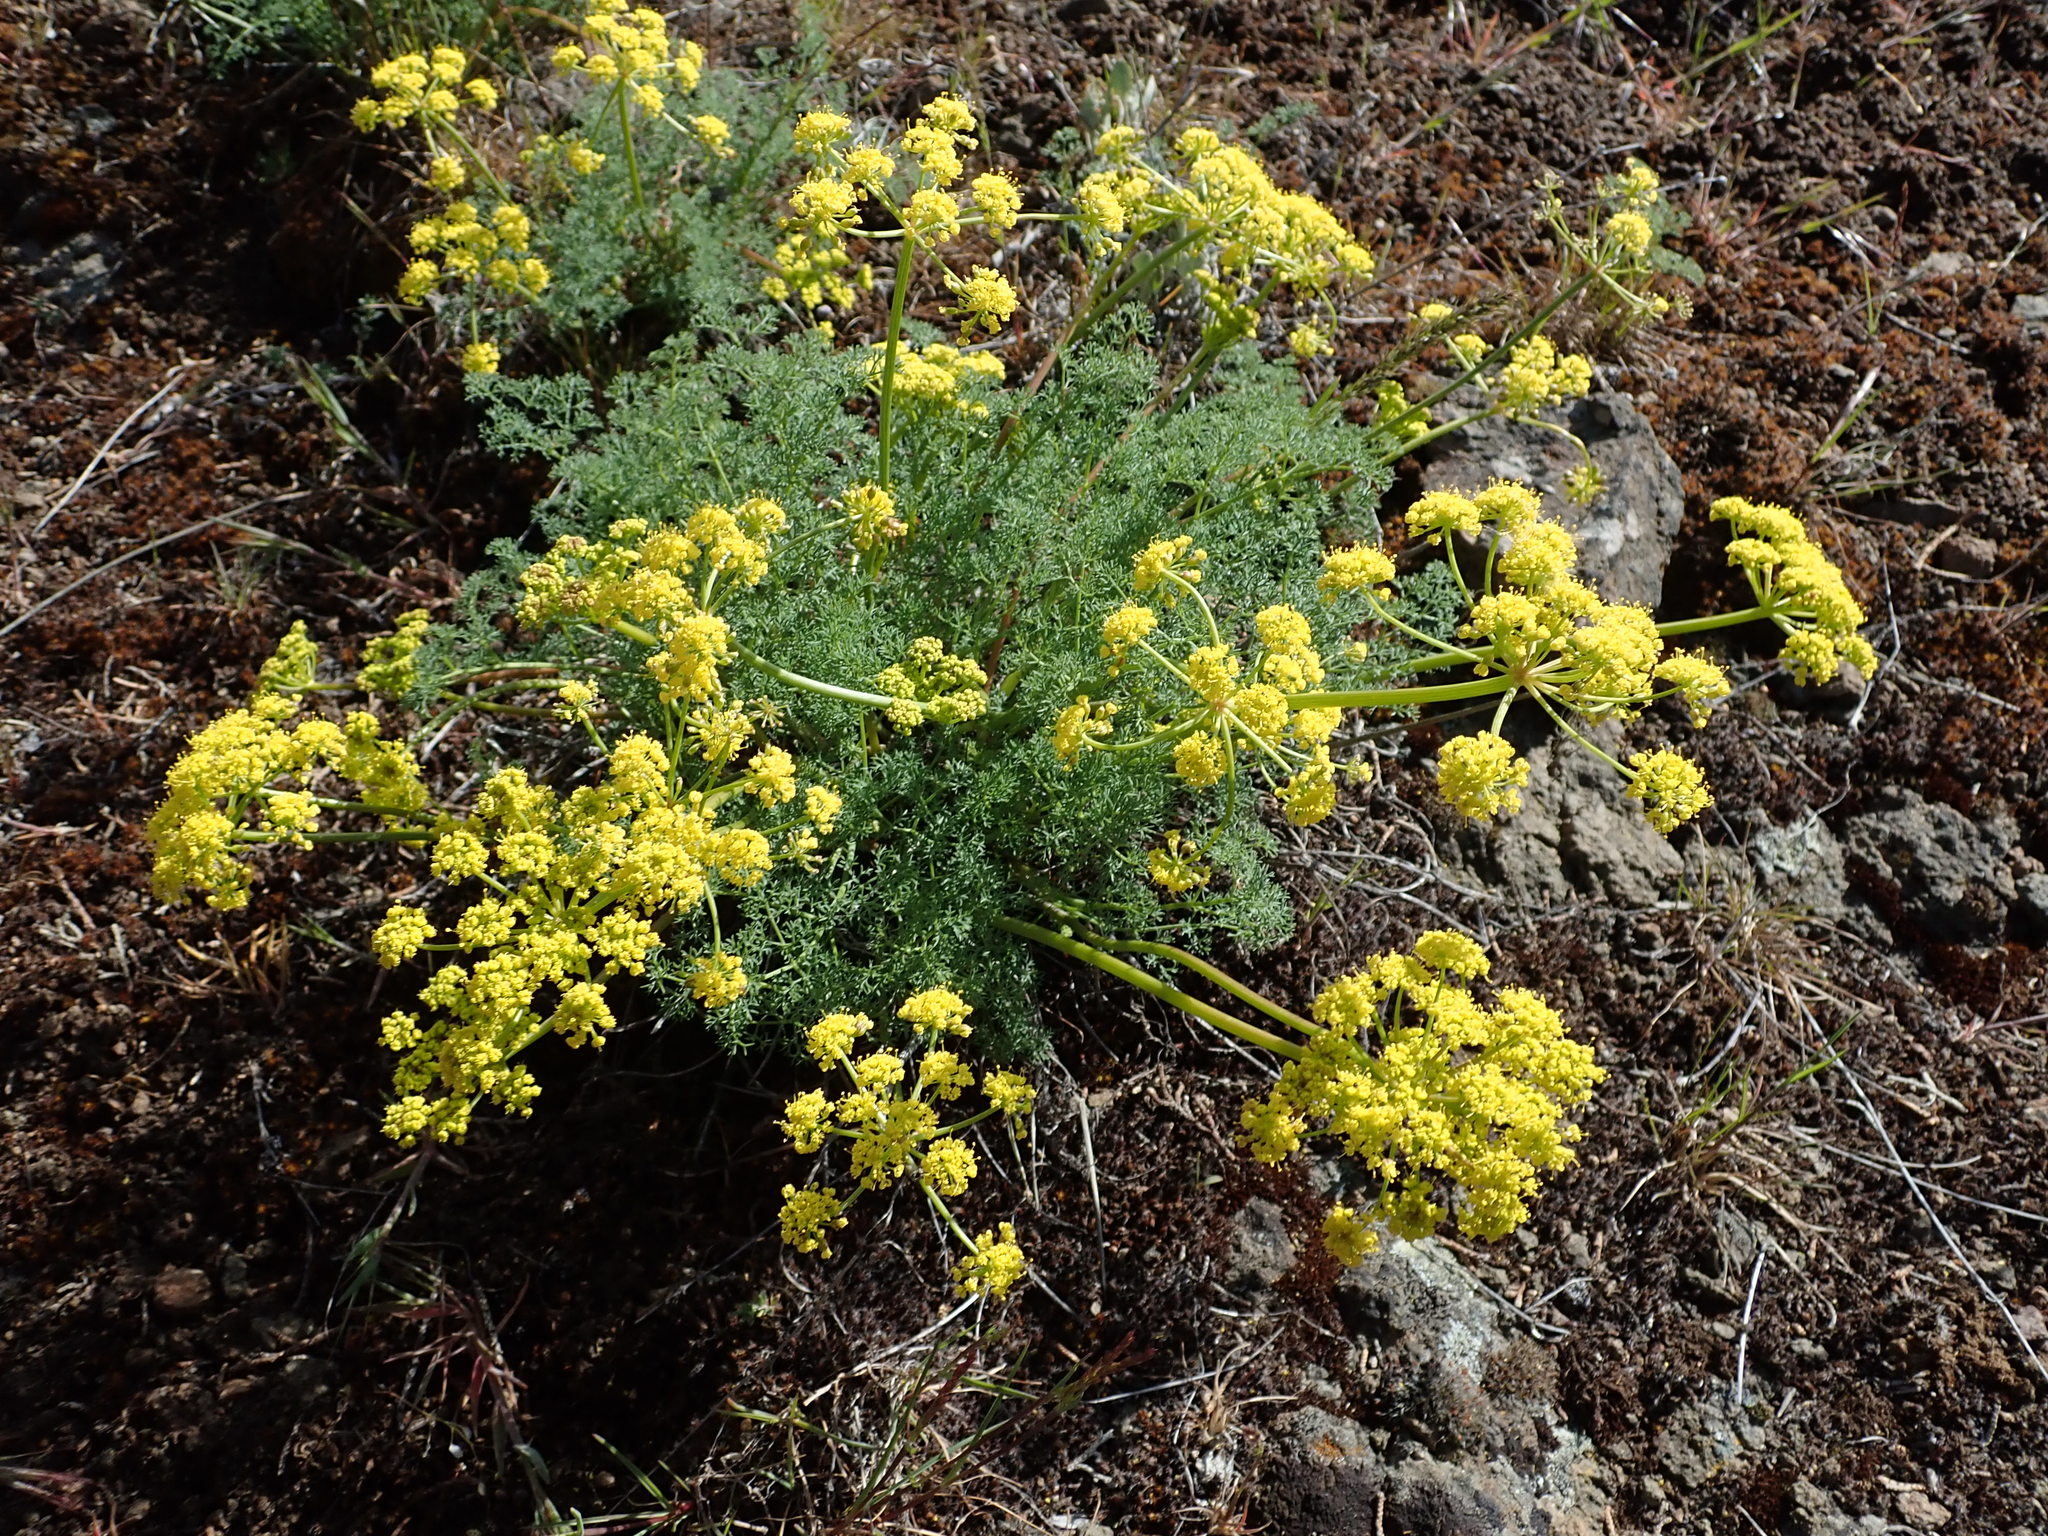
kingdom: Plantae
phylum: Tracheophyta
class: Magnoliopsida
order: Apiales
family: Apiaceae
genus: Lomatium
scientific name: Lomatium papilioniferum
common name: Butterfly lomatium
